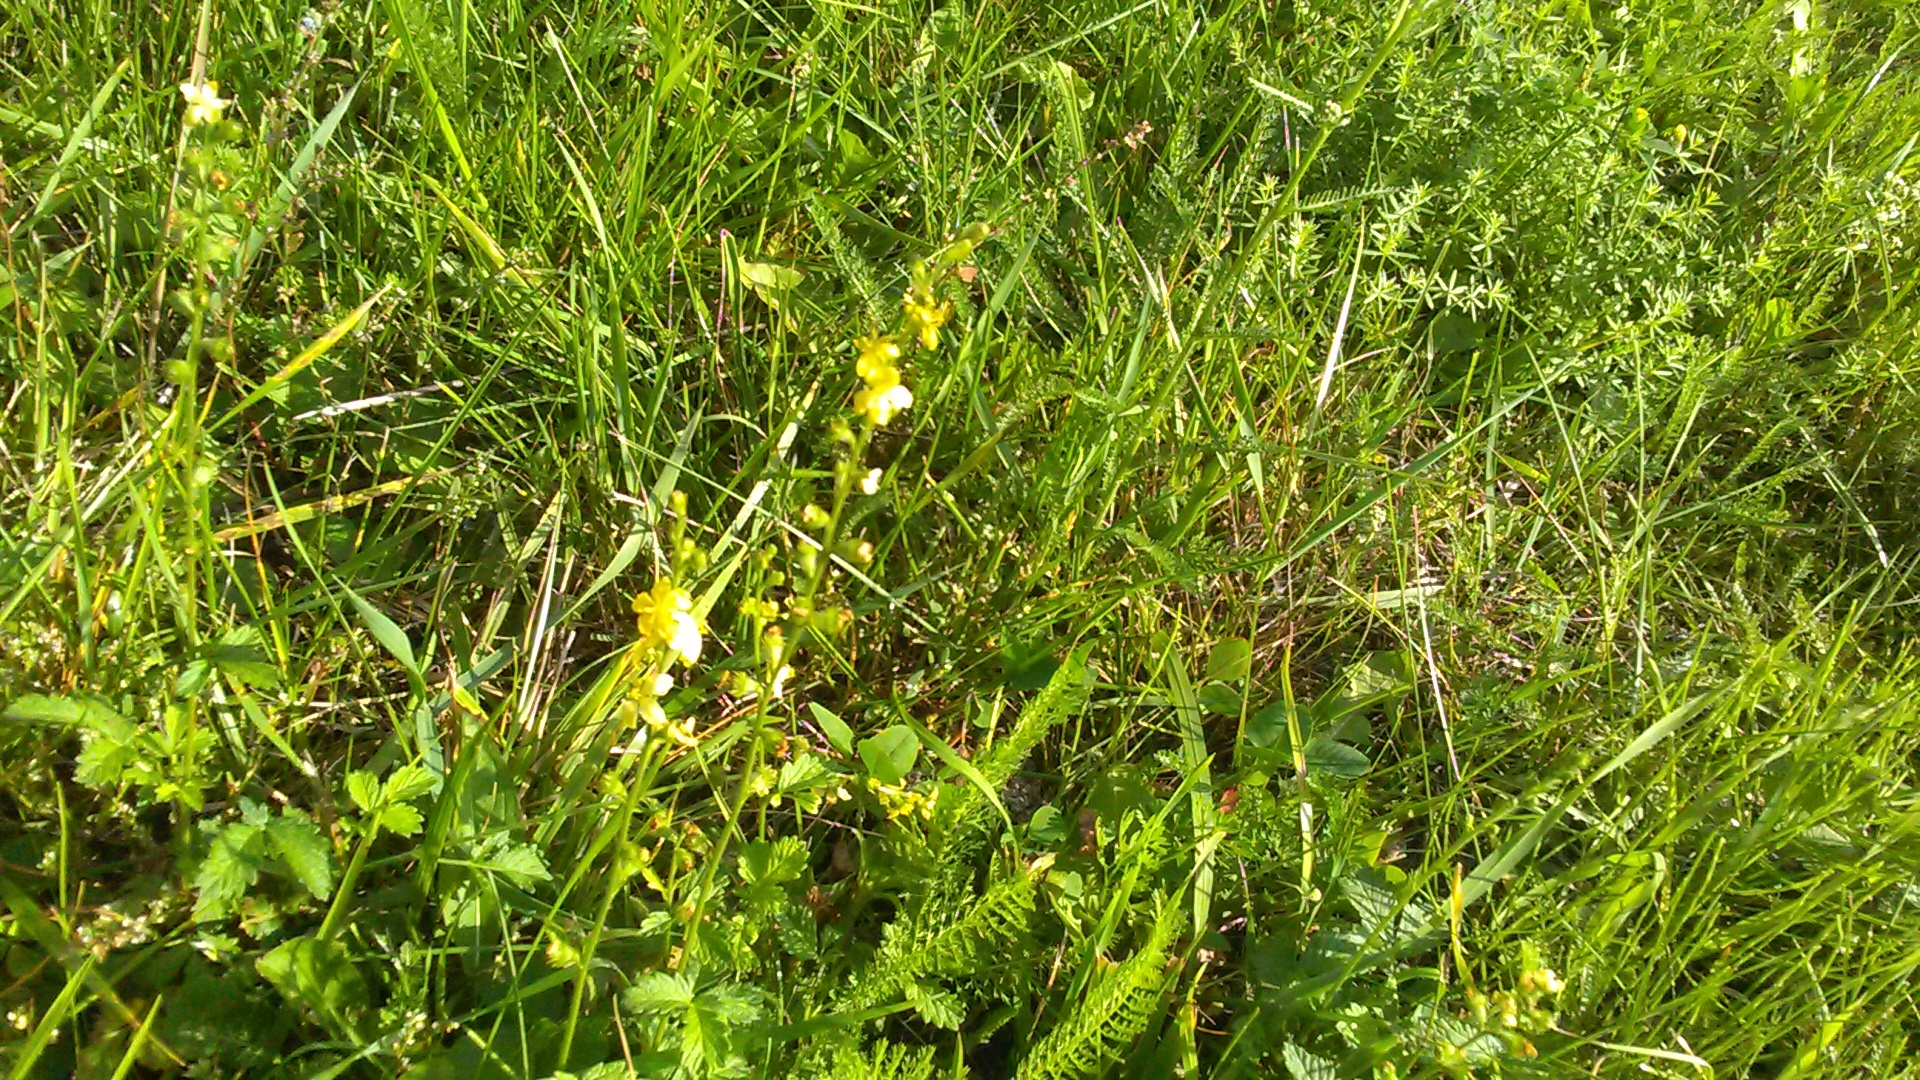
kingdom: Plantae
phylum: Tracheophyta
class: Magnoliopsida
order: Rosales
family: Rosaceae
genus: Agrimonia
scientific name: Agrimonia eupatoria
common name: Agrimony
